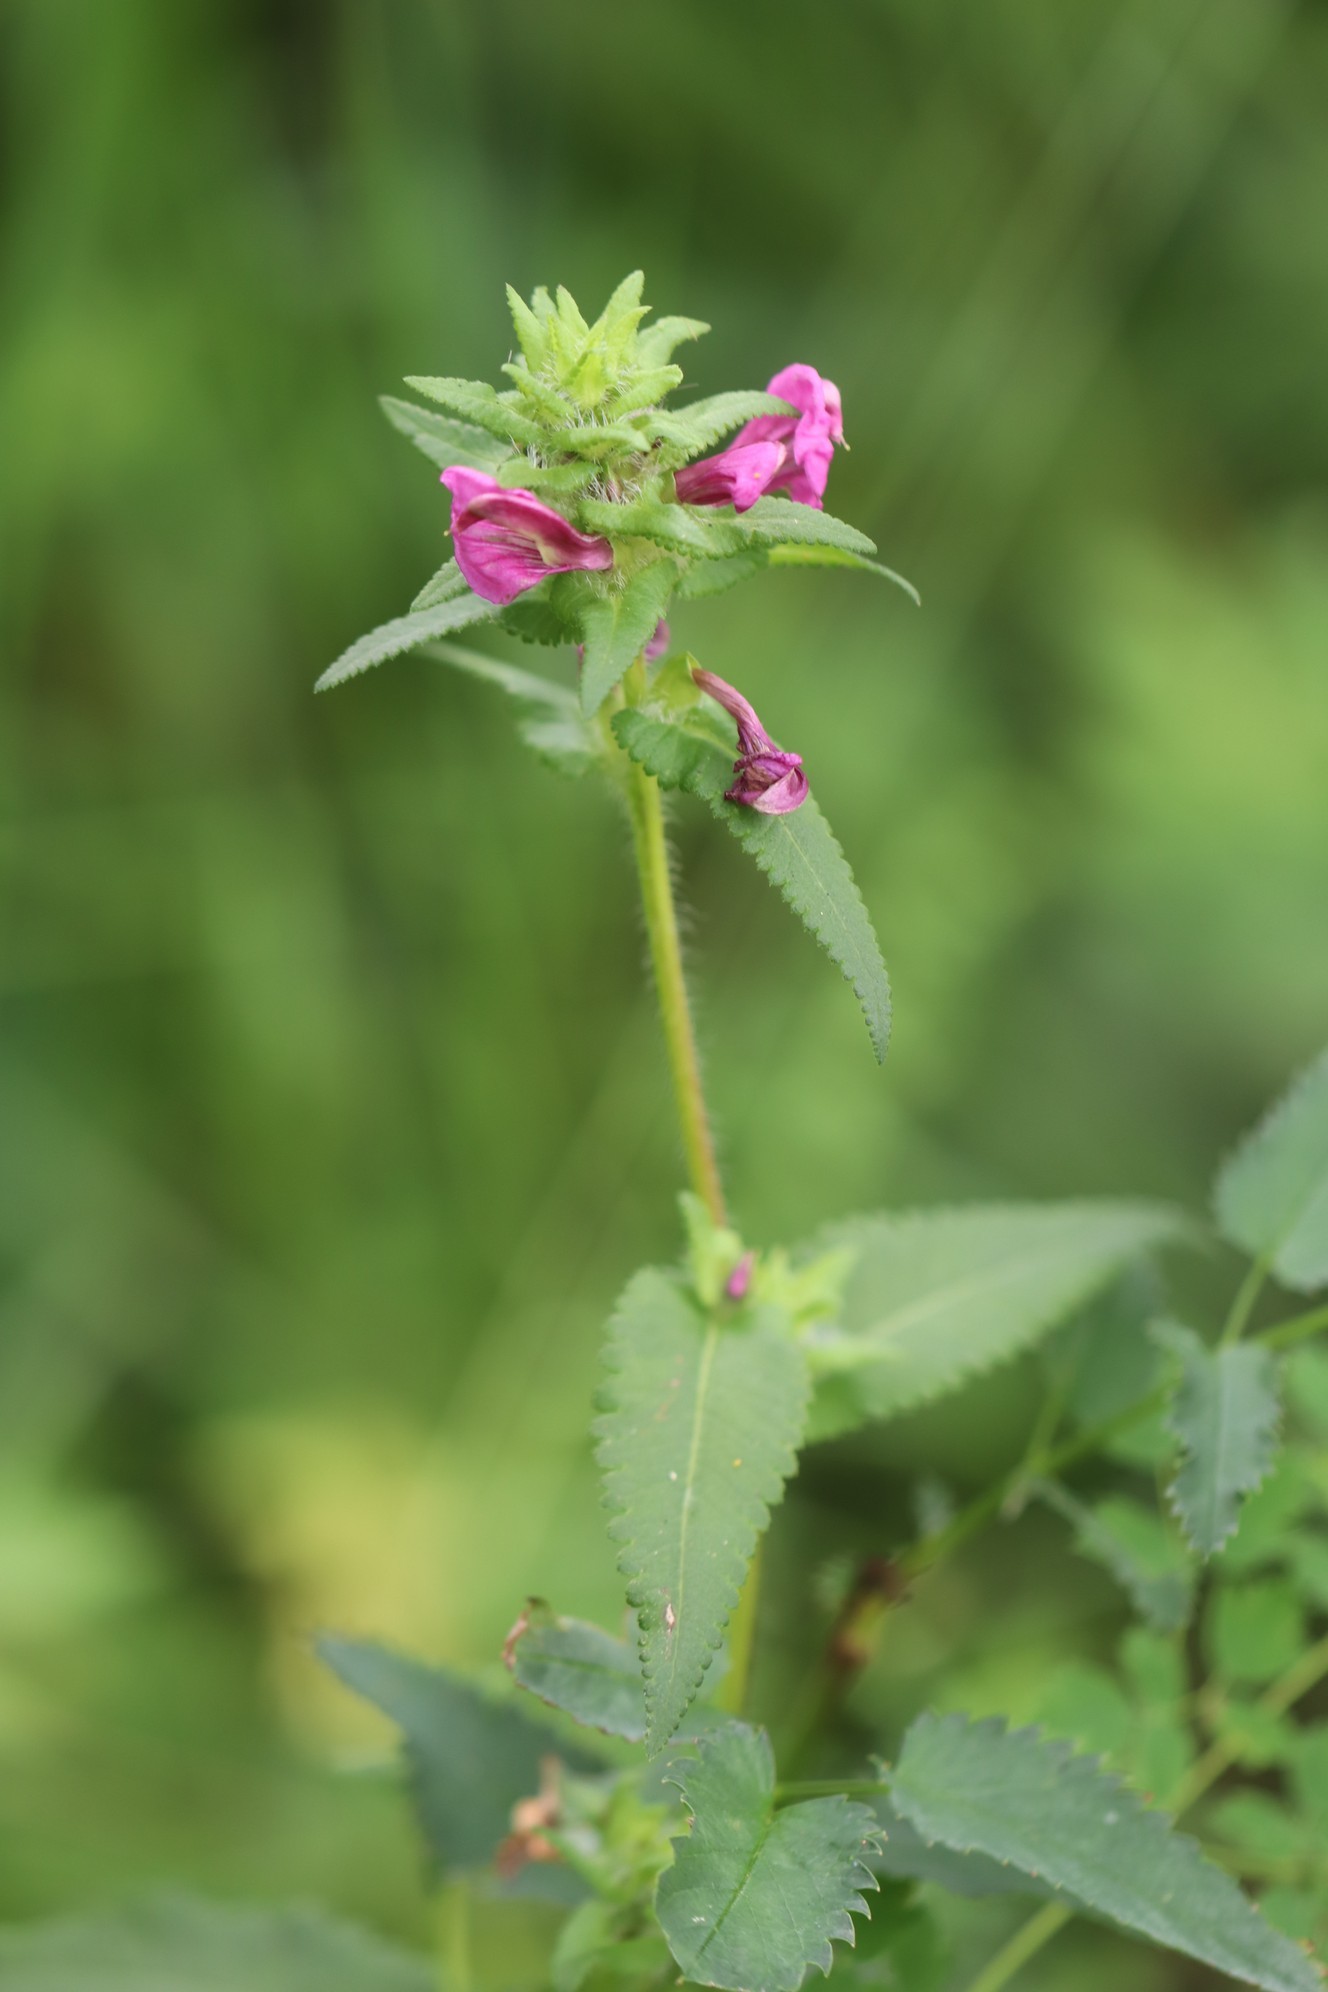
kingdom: Plantae
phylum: Tracheophyta
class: Magnoliopsida
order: Lamiales
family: Orobanchaceae
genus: Pedicularis
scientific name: Pedicularis resupinata
